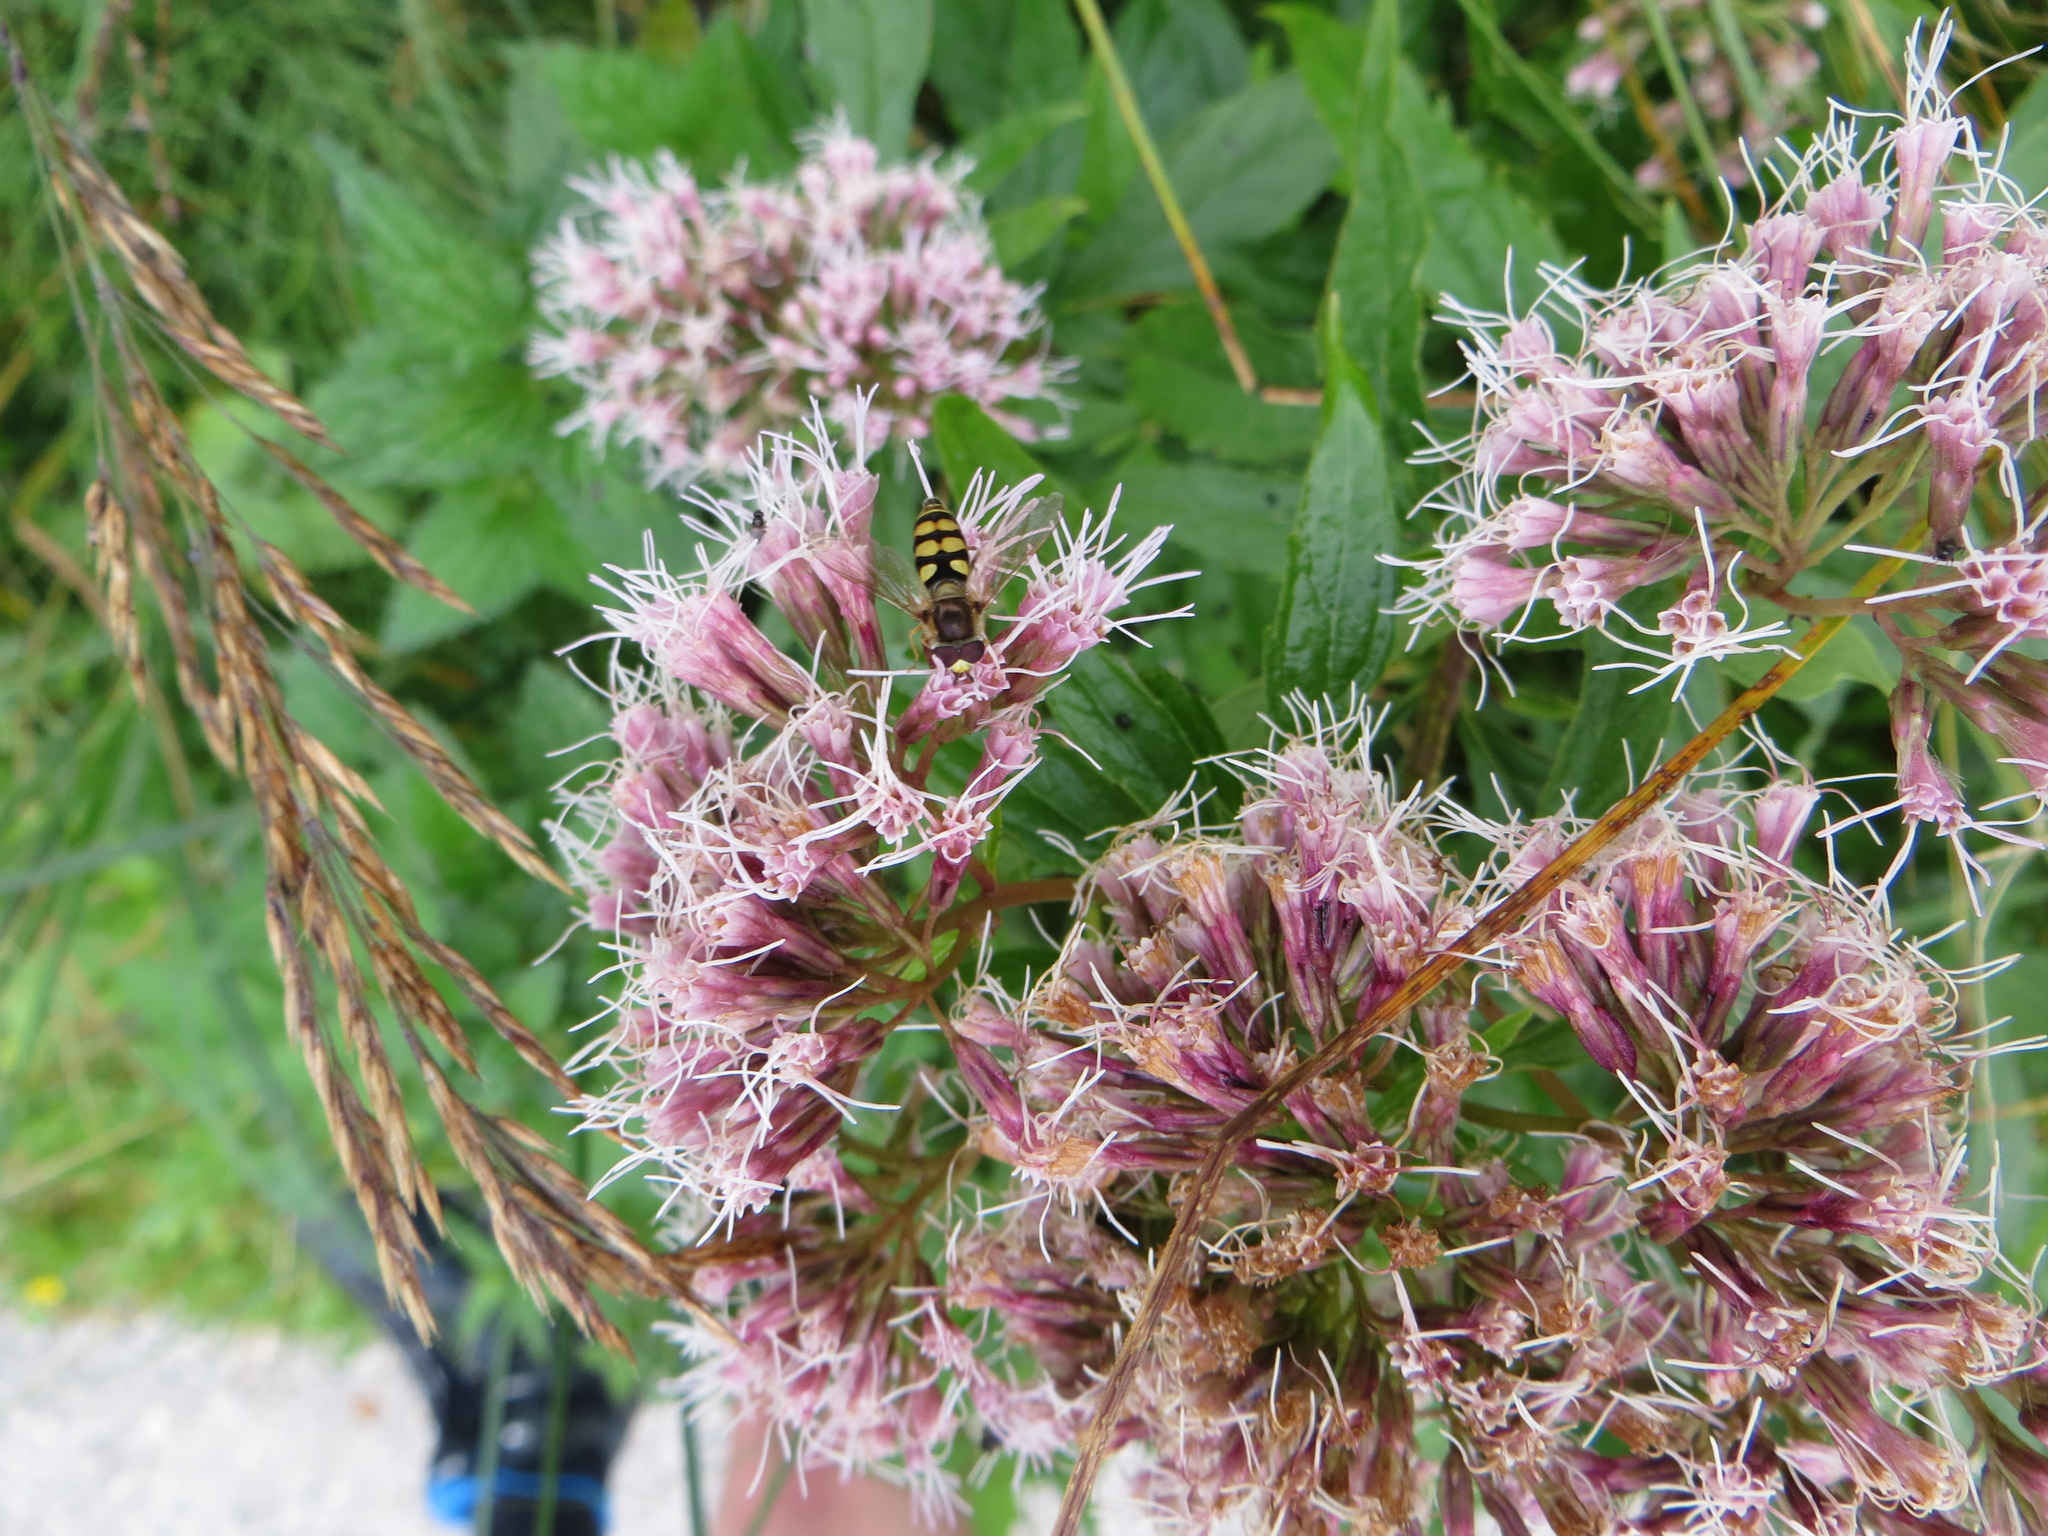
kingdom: Animalia
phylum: Arthropoda
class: Insecta
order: Diptera
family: Syrphidae
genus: Eupeodes
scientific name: Eupeodes corollae
